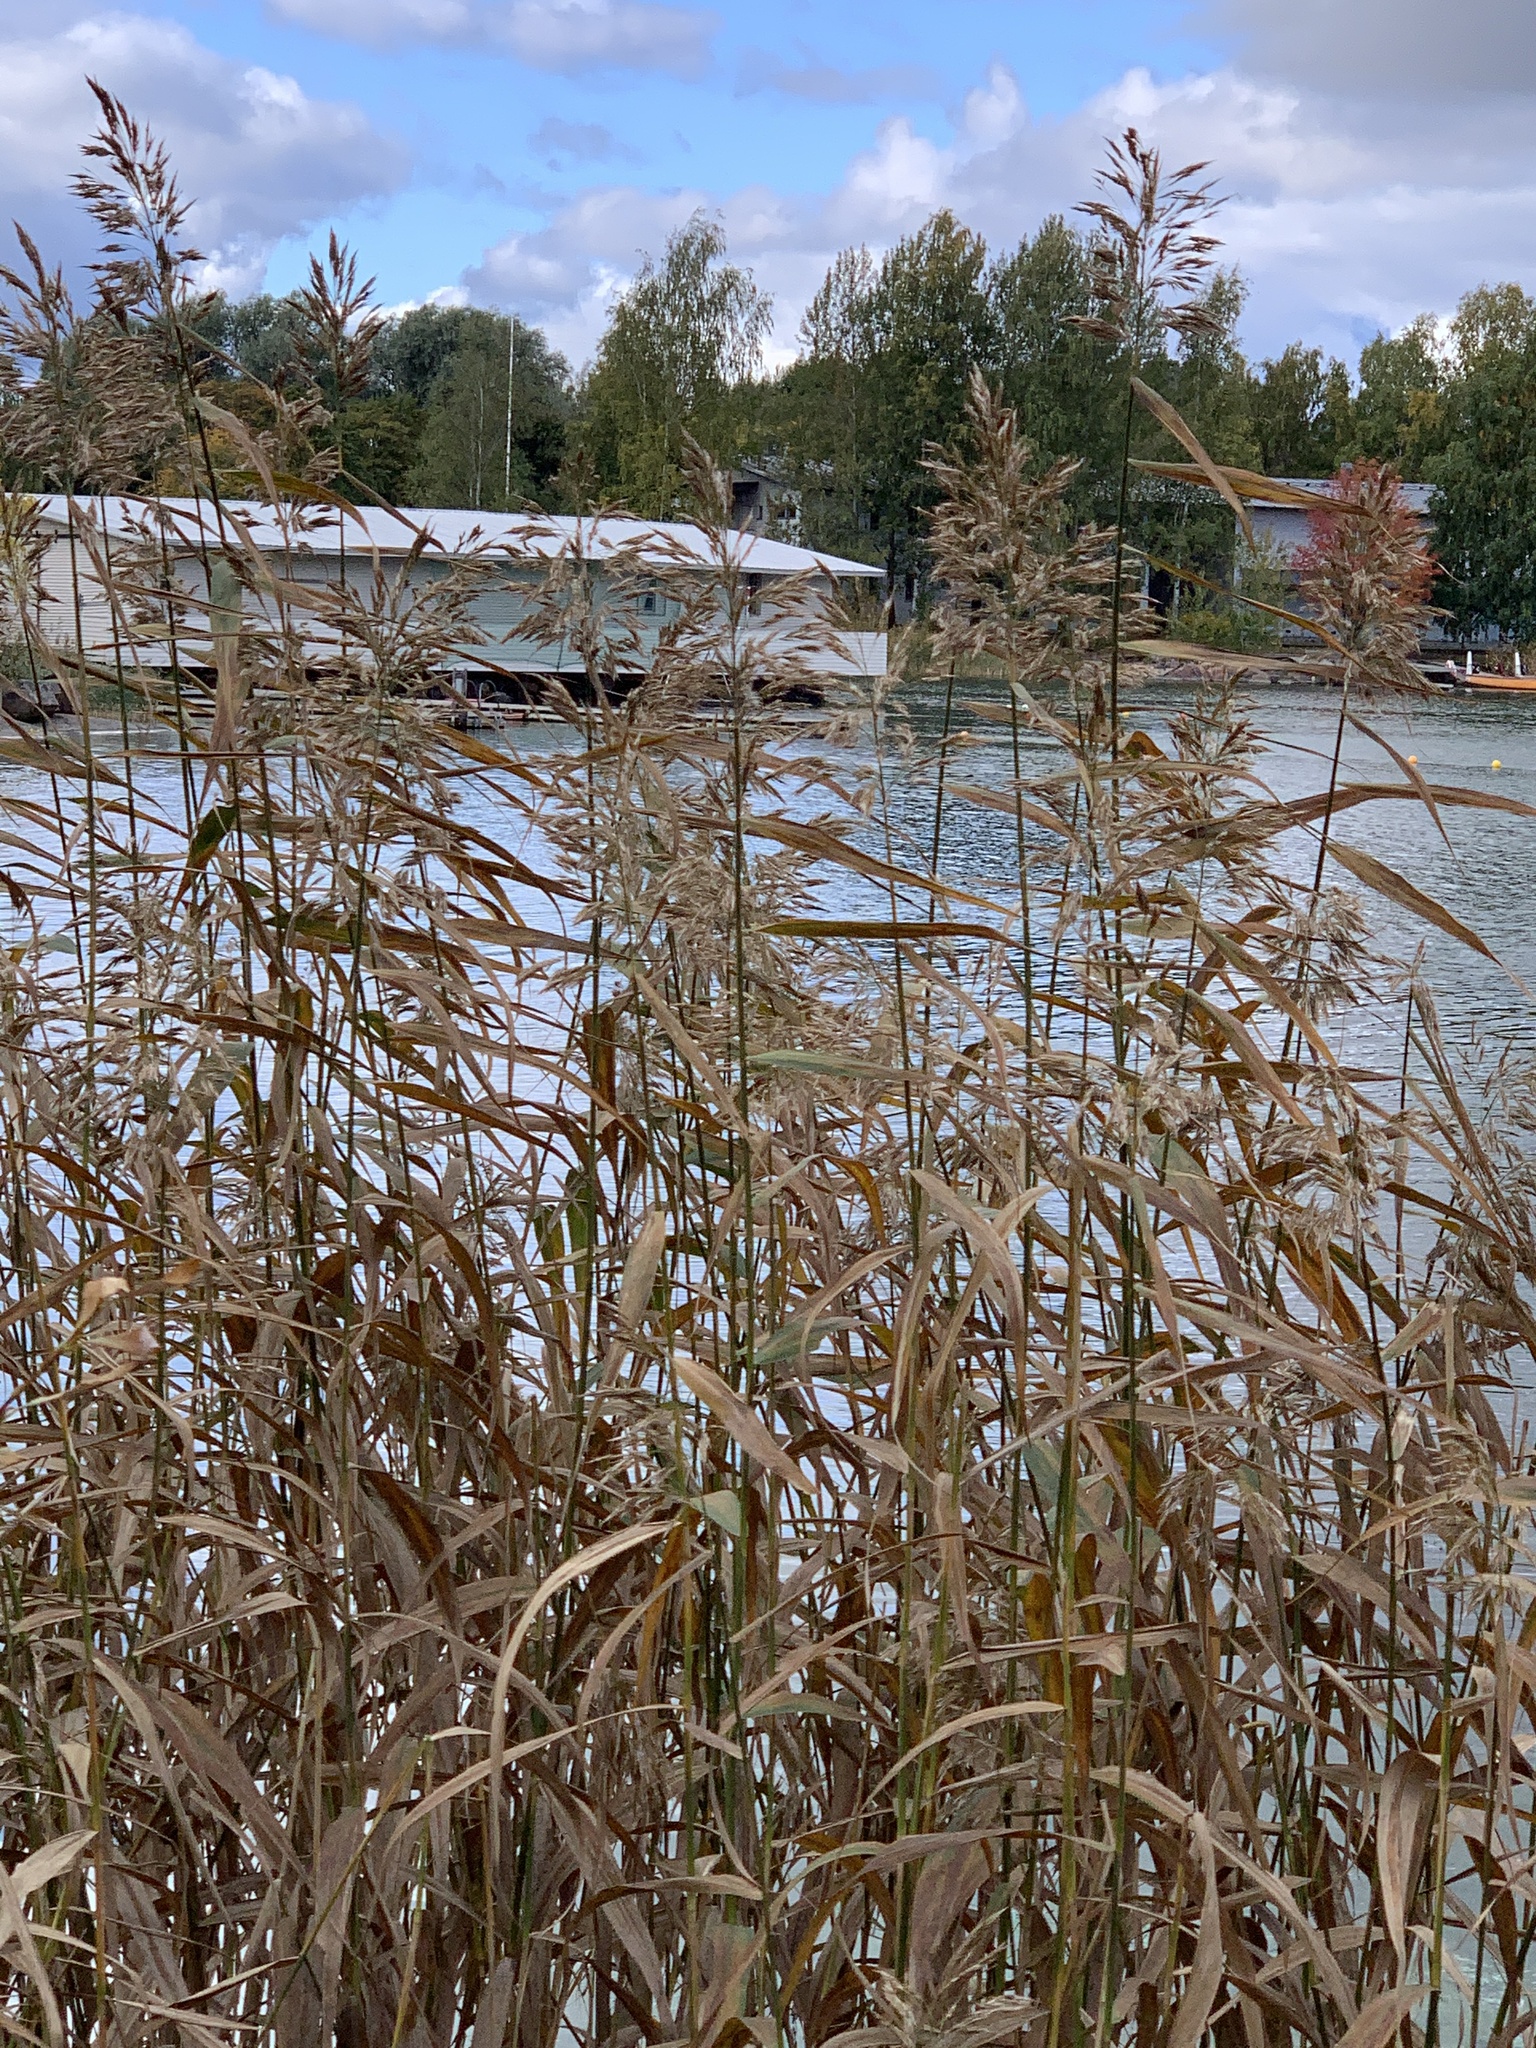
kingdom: Plantae
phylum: Tracheophyta
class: Liliopsida
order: Poales
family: Poaceae
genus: Phragmites
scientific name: Phragmites australis
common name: Common reed
